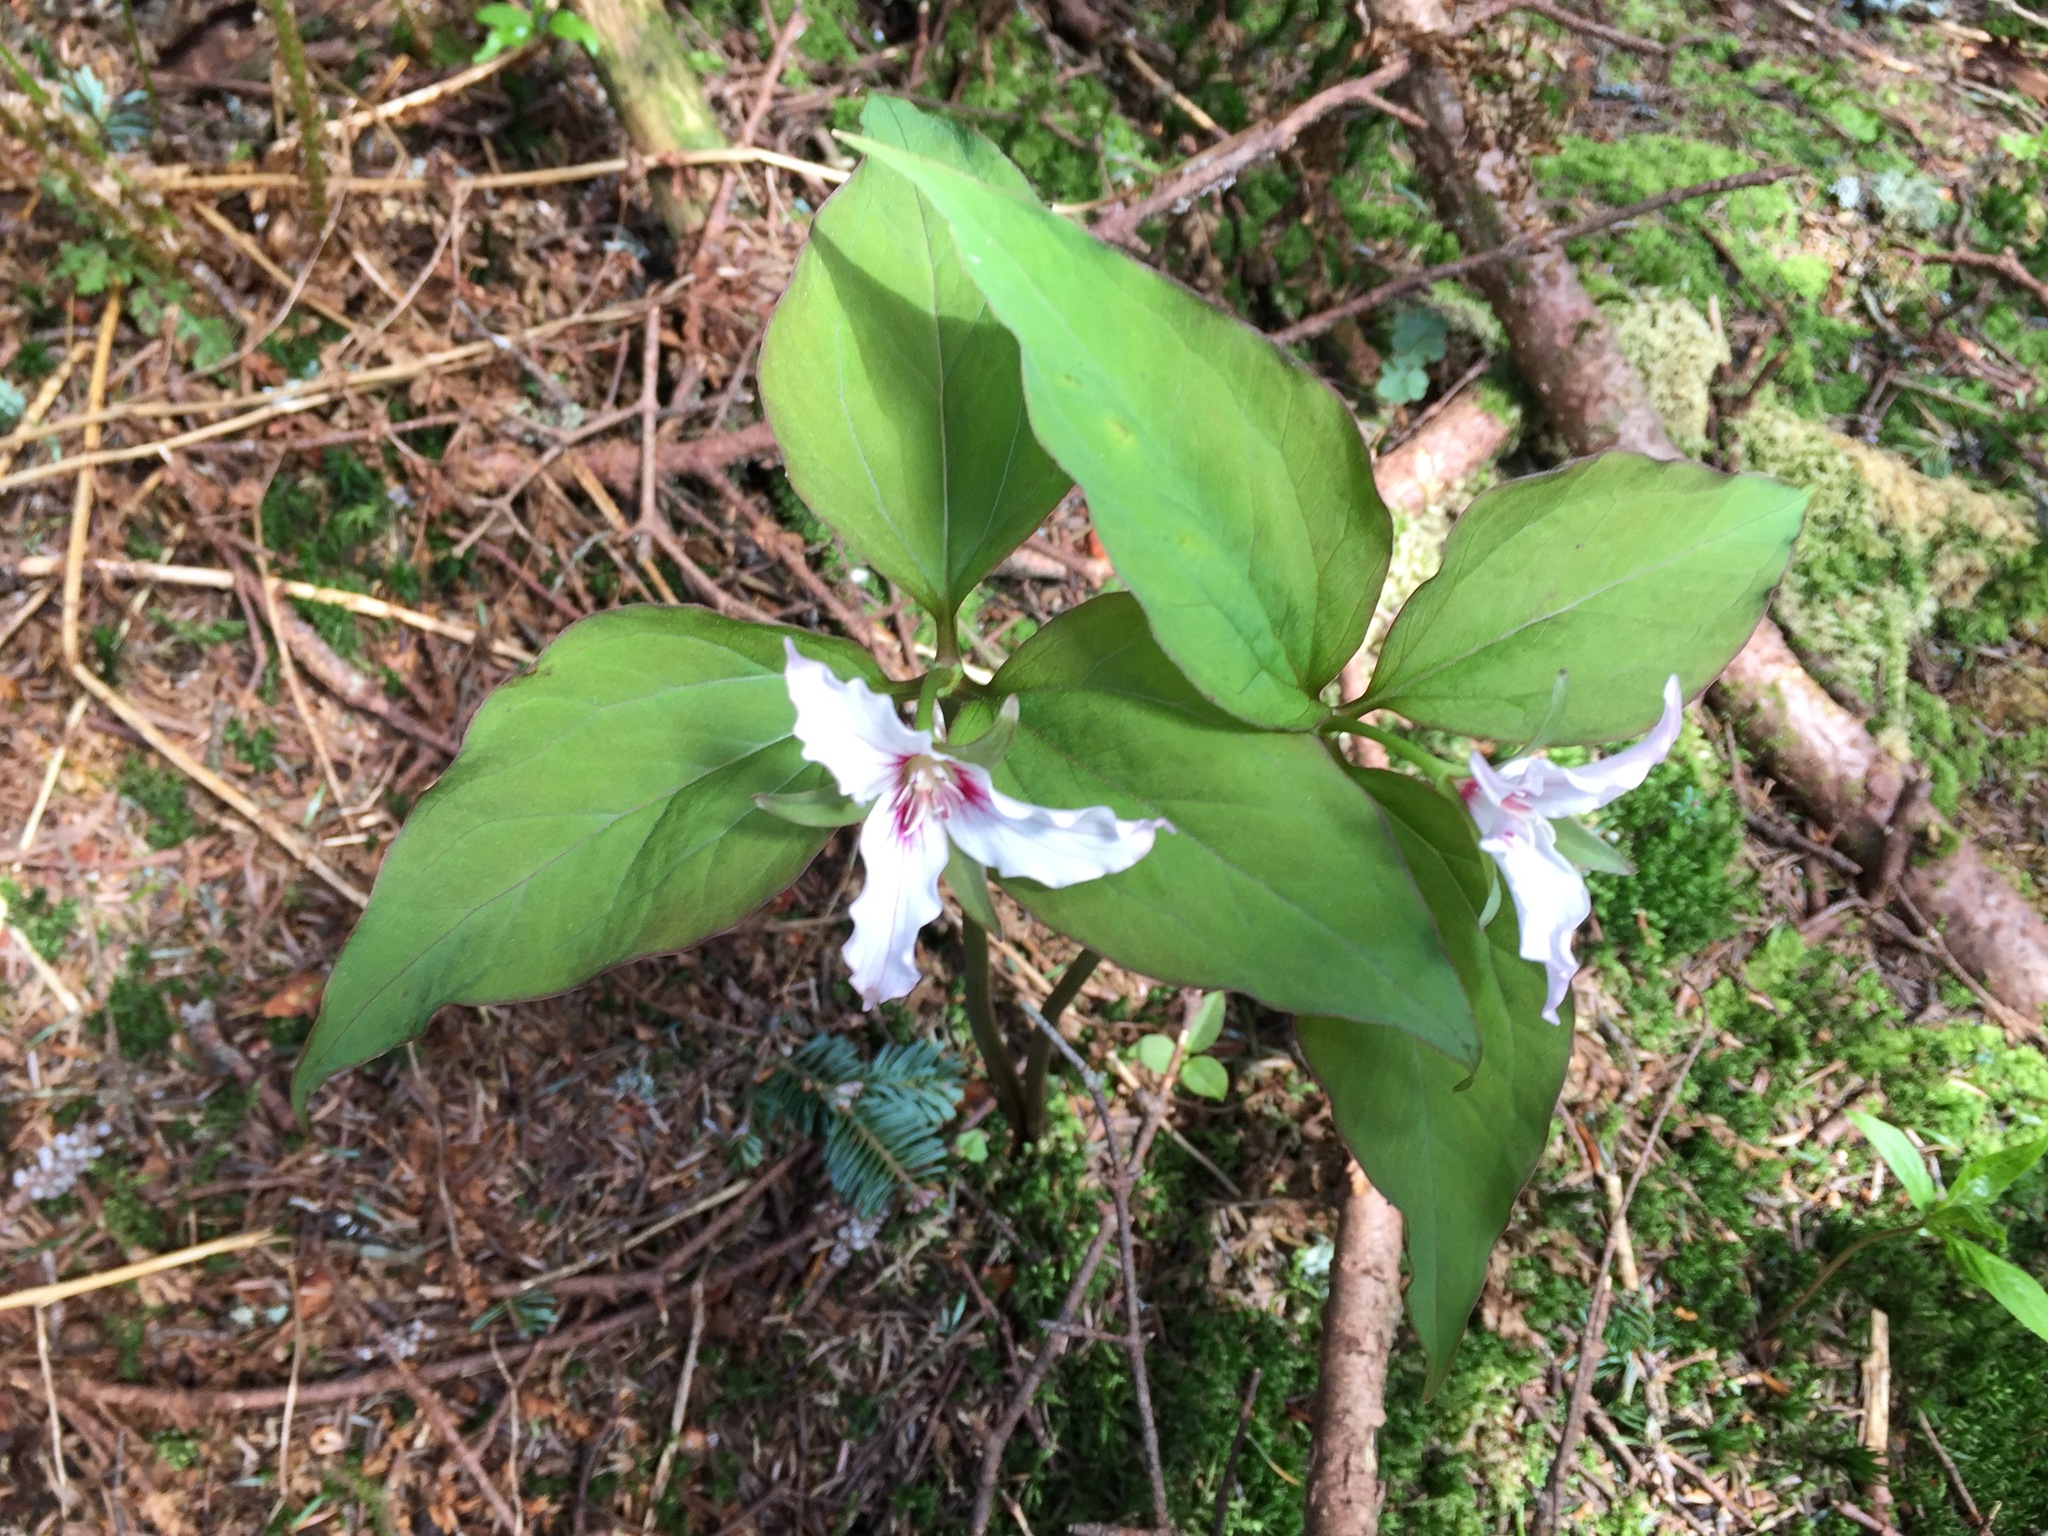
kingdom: Plantae
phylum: Tracheophyta
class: Liliopsida
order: Liliales
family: Melanthiaceae
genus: Trillium
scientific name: Trillium undulatum
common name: Paint trillium
